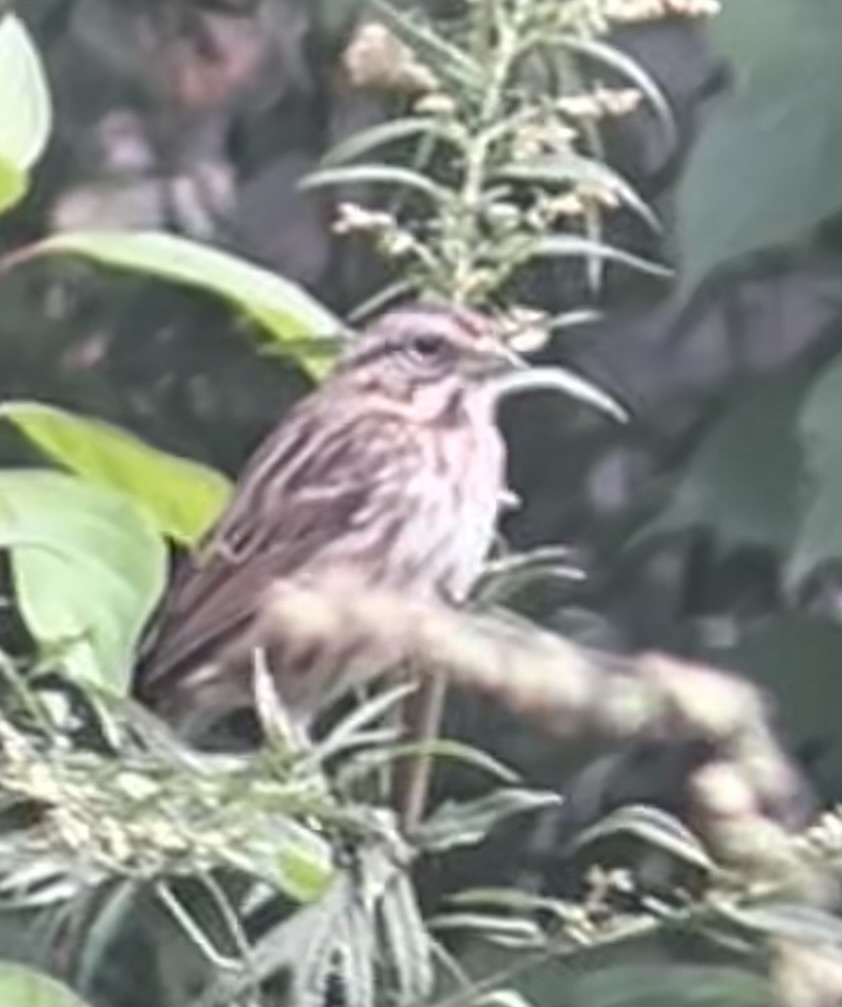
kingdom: Animalia
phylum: Chordata
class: Aves
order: Passeriformes
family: Passerellidae
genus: Melospiza
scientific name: Melospiza melodia
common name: Song sparrow
